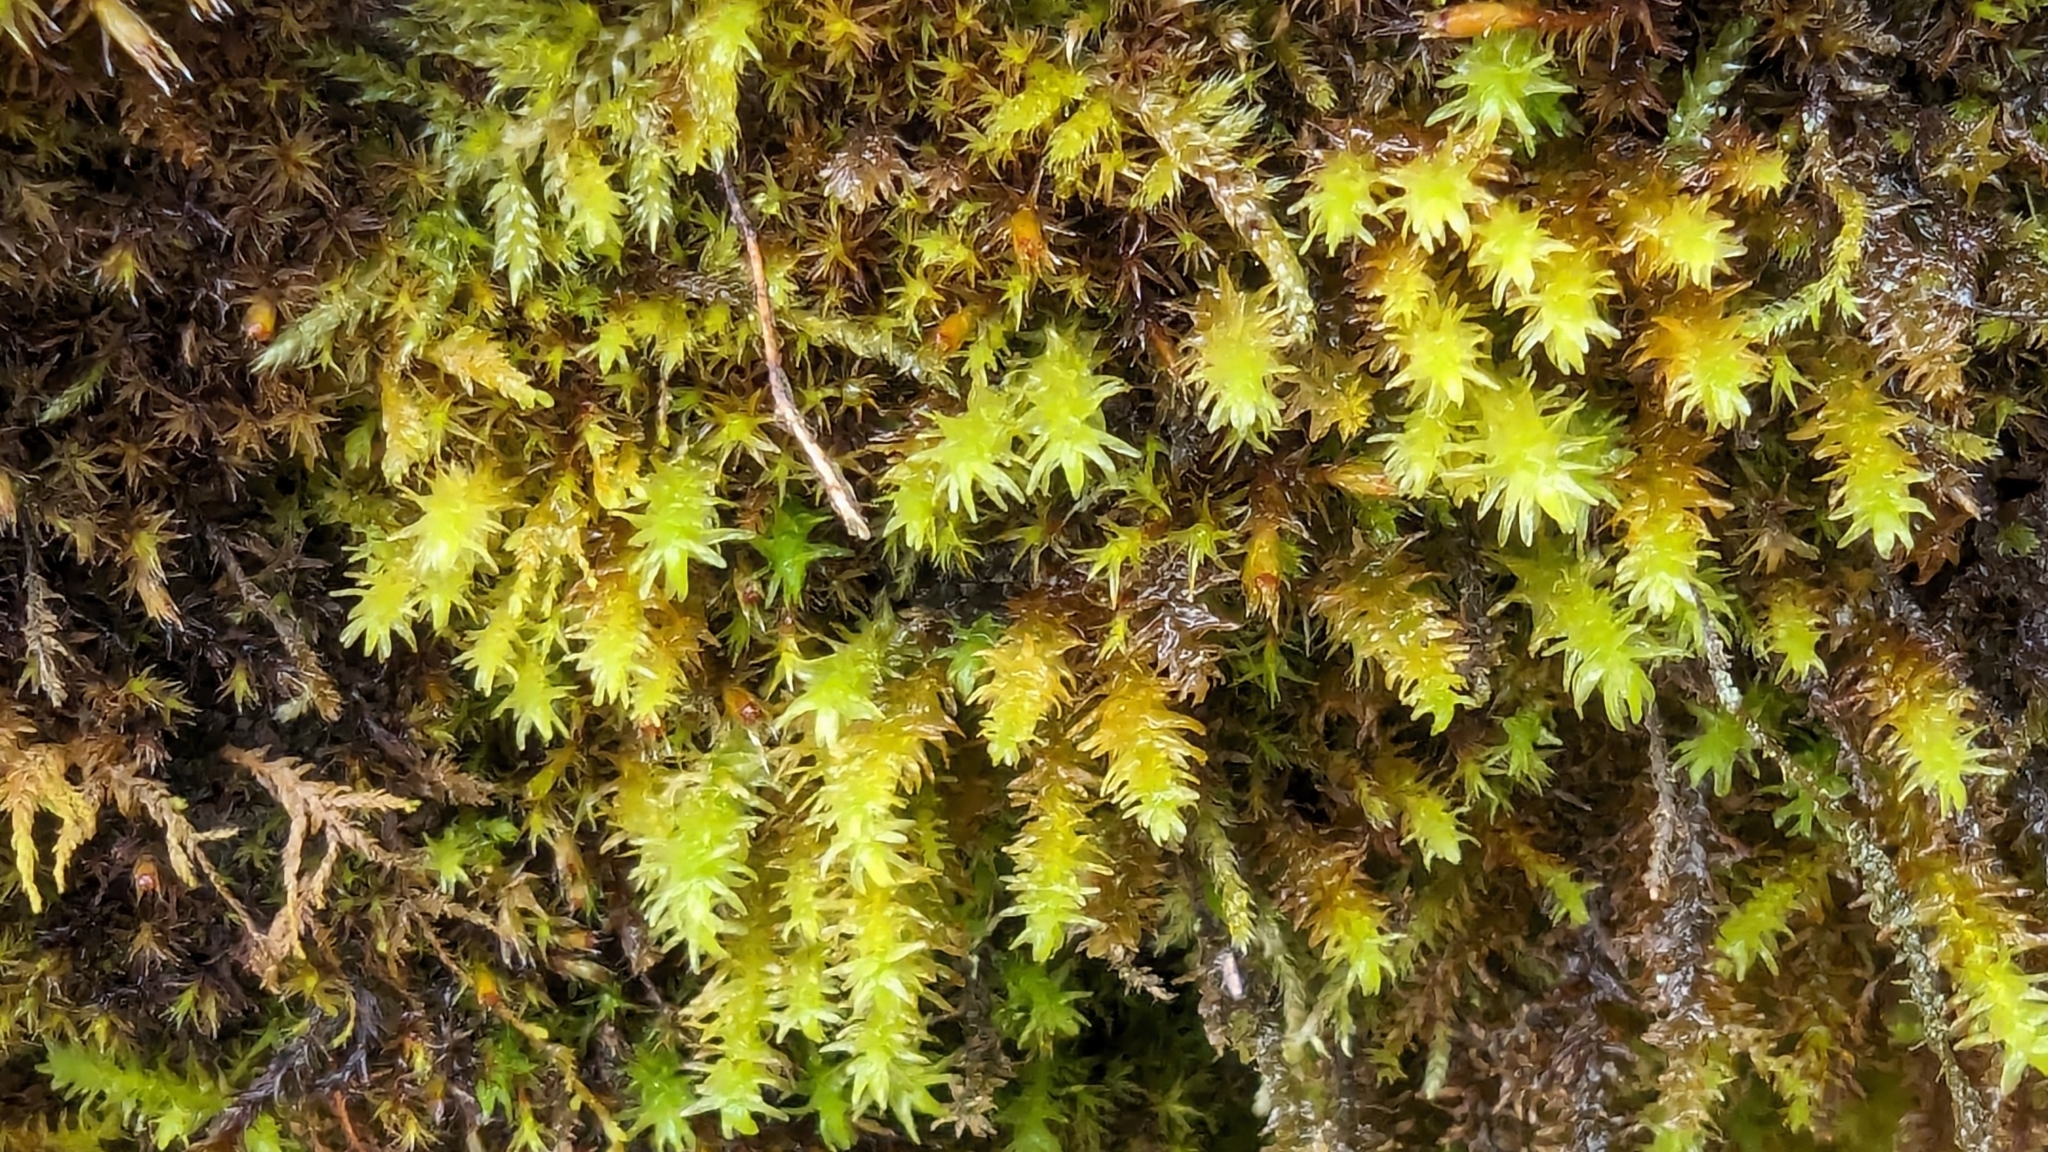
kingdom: Plantae
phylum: Bryophyta
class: Bryopsida
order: Hypnales
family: Anomodontaceae
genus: Anomodon
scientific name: Anomodon viticulosus
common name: Tall anomodon
